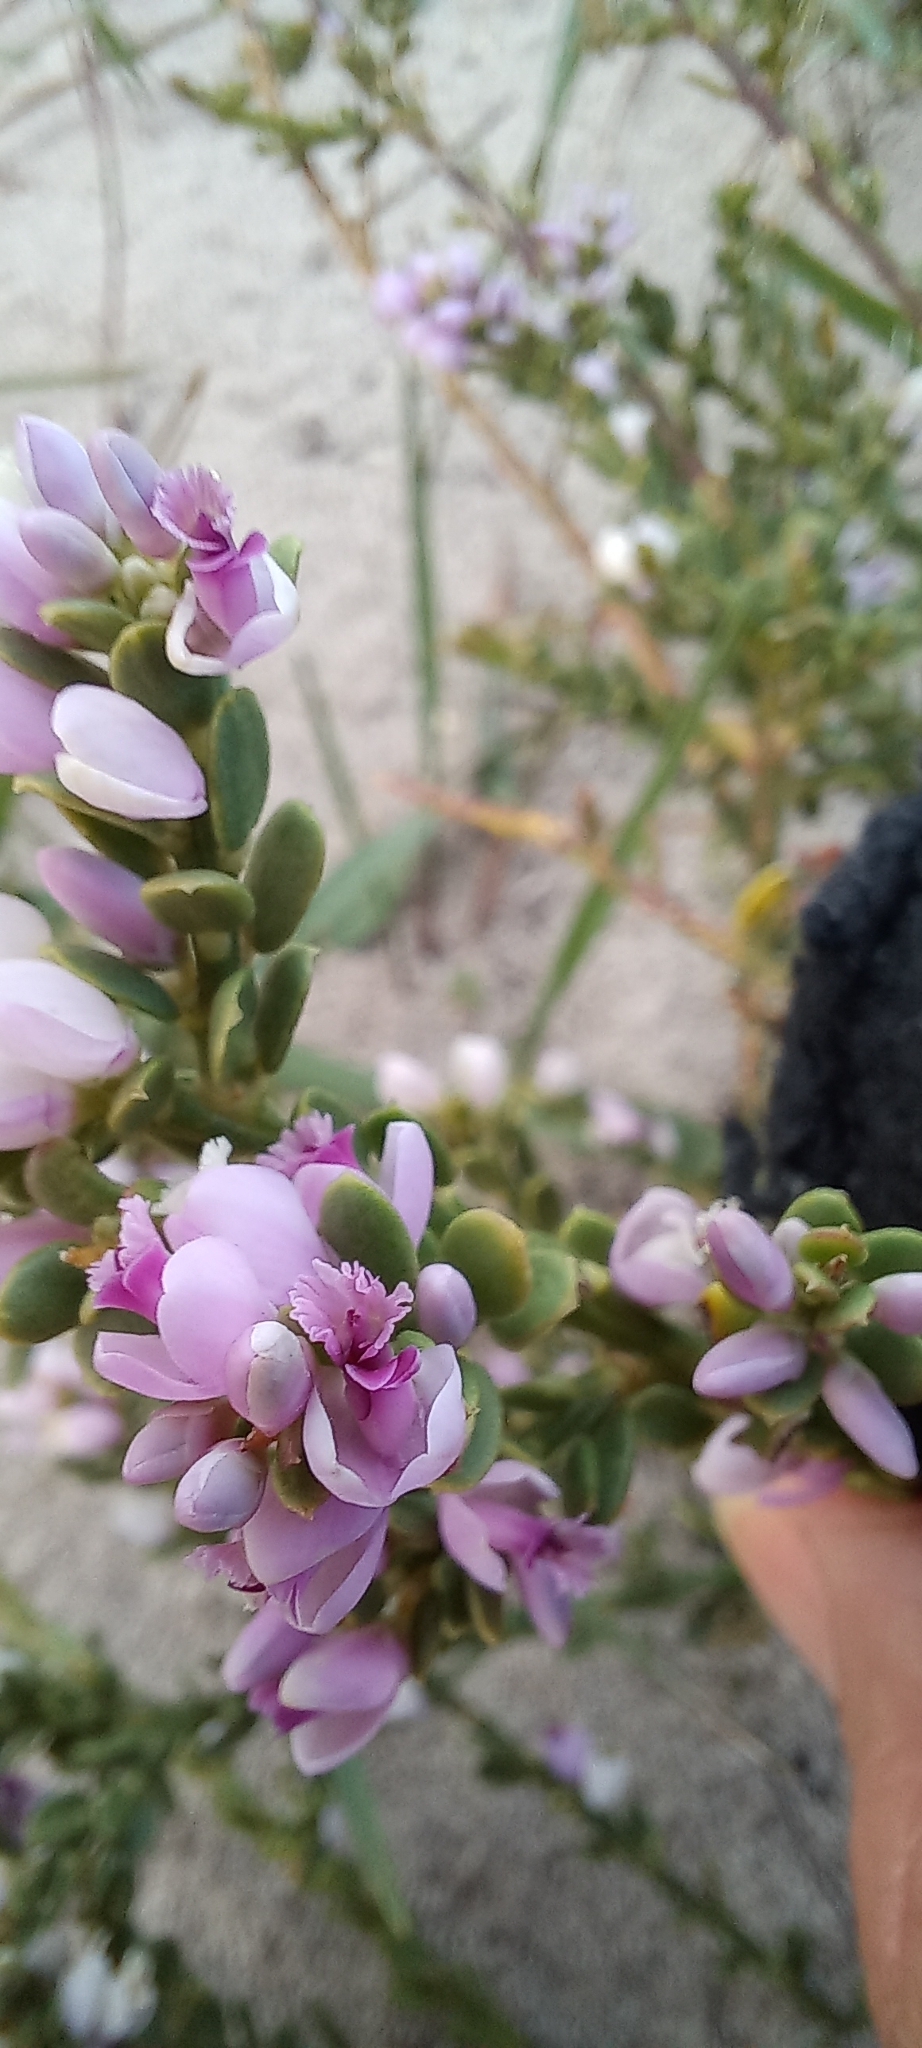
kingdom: Plantae
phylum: Tracheophyta
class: Magnoliopsida
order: Fabales
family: Polygalaceae
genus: Muraltia
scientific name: Muraltia spinosa
